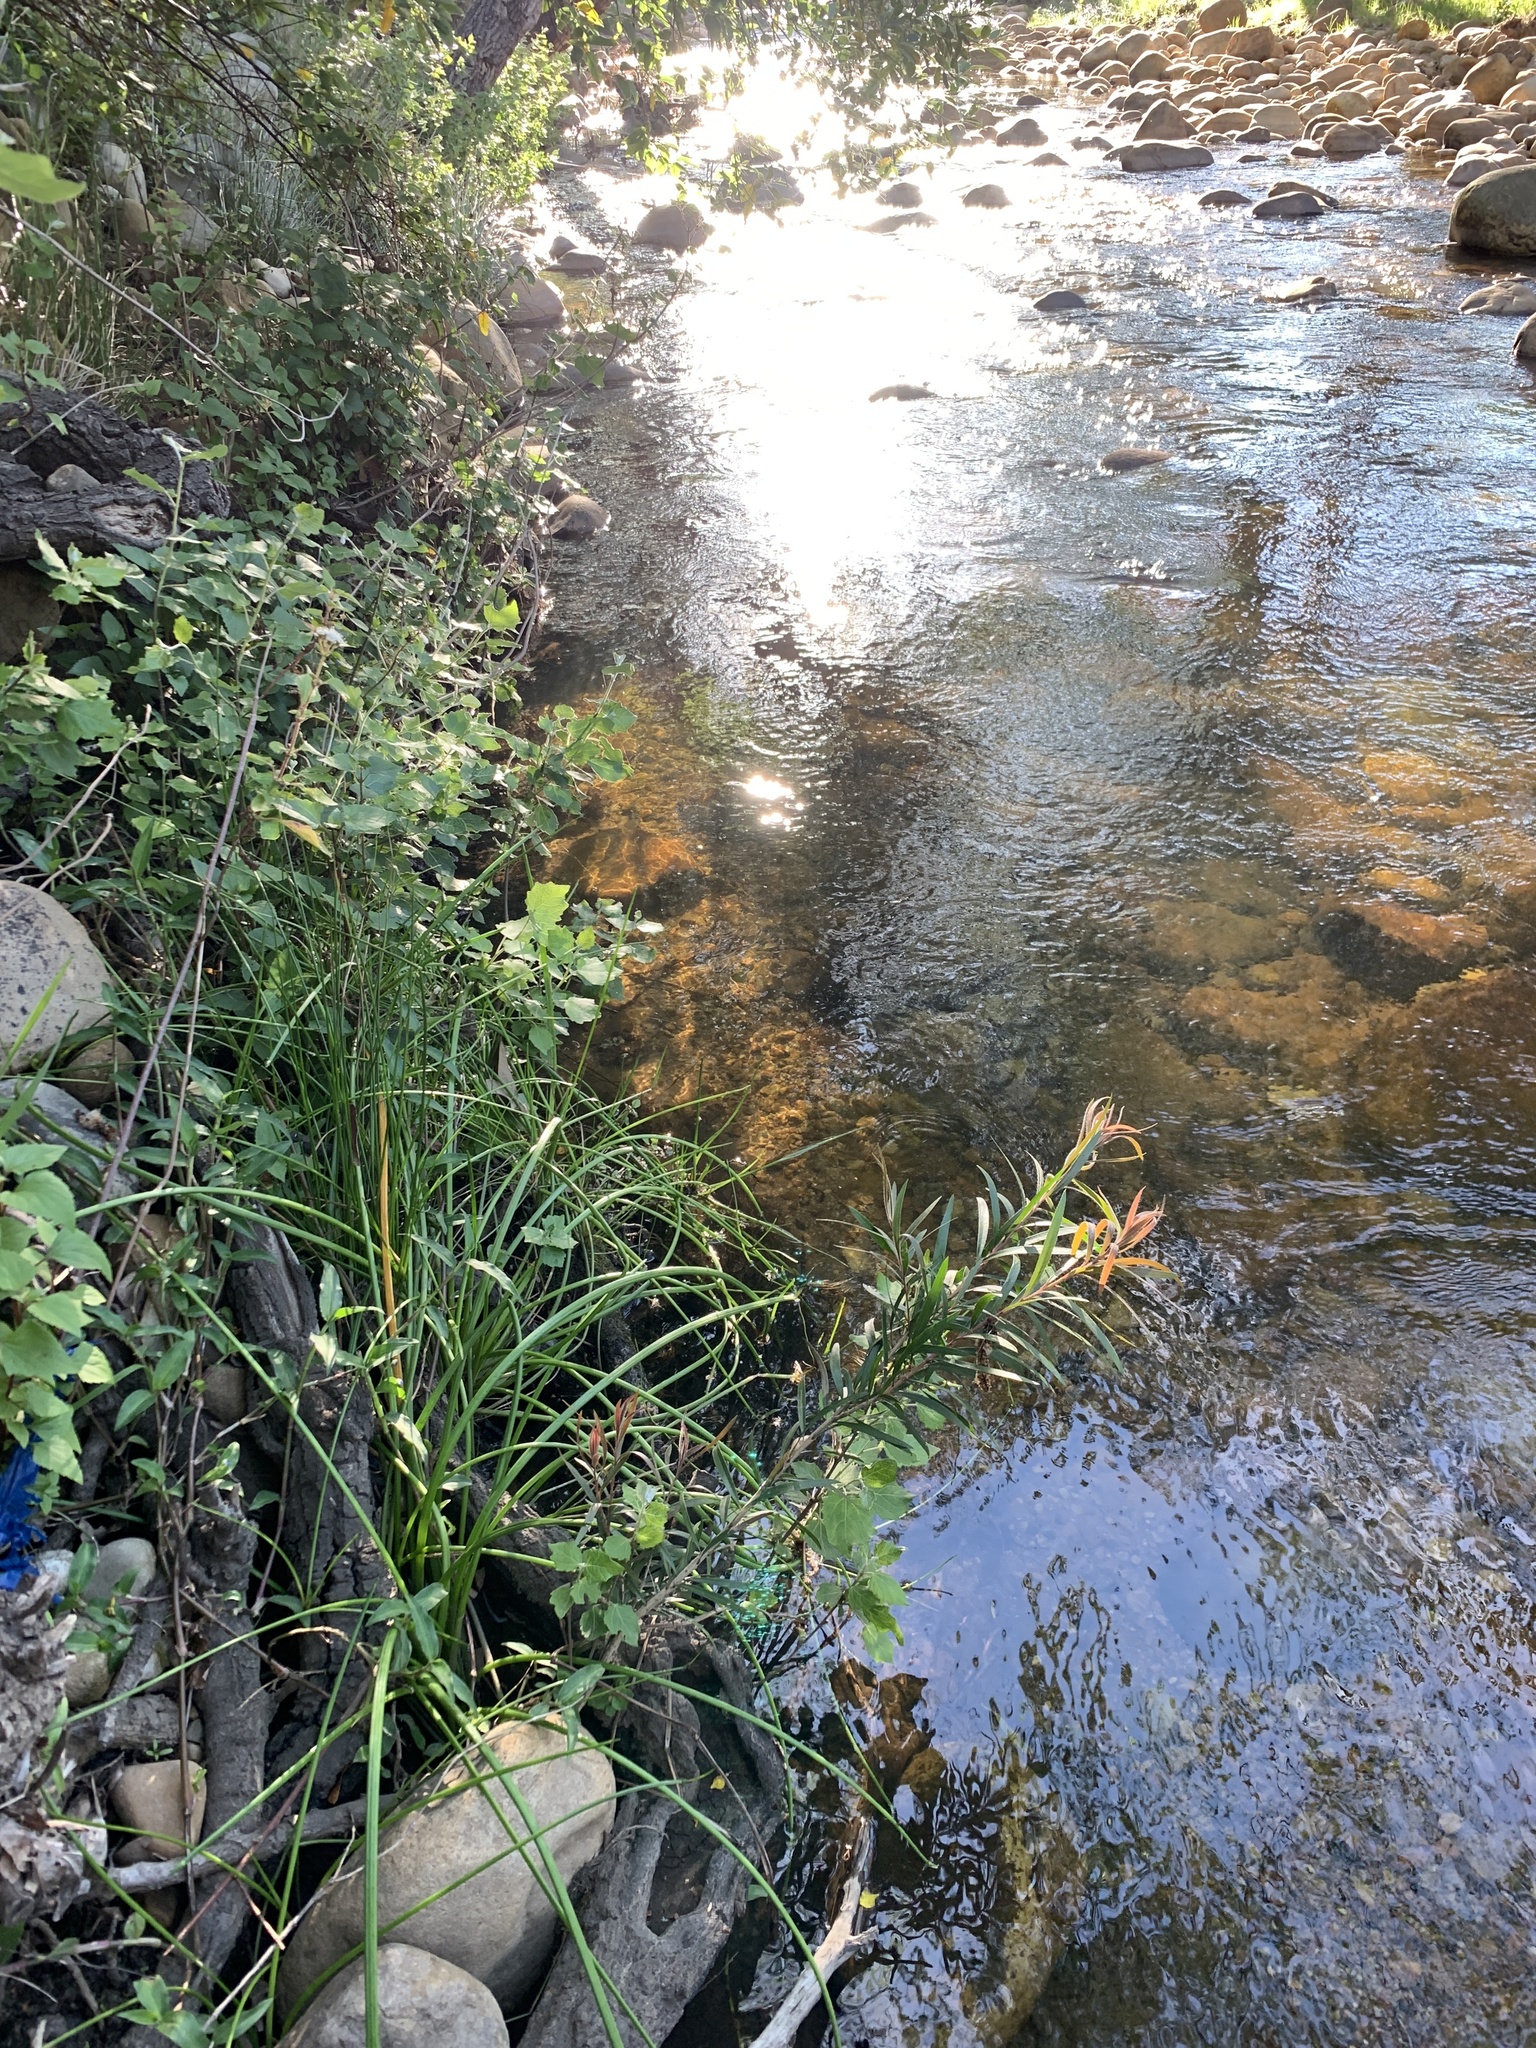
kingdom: Plantae
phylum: Tracheophyta
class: Magnoliopsida
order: Myrtales
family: Myrtaceae
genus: Callistemon
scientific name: Callistemon viminalis
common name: Drooping bottlebrush
